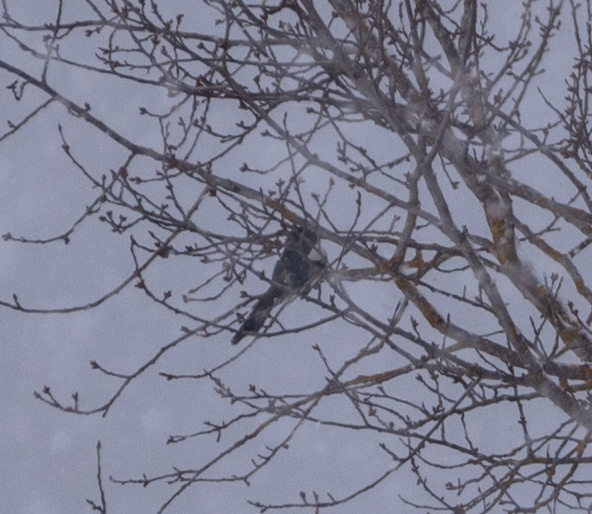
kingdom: Animalia
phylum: Chordata
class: Aves
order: Passeriformes
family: Corvidae
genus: Pica
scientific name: Pica pica
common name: Eurasian magpie
